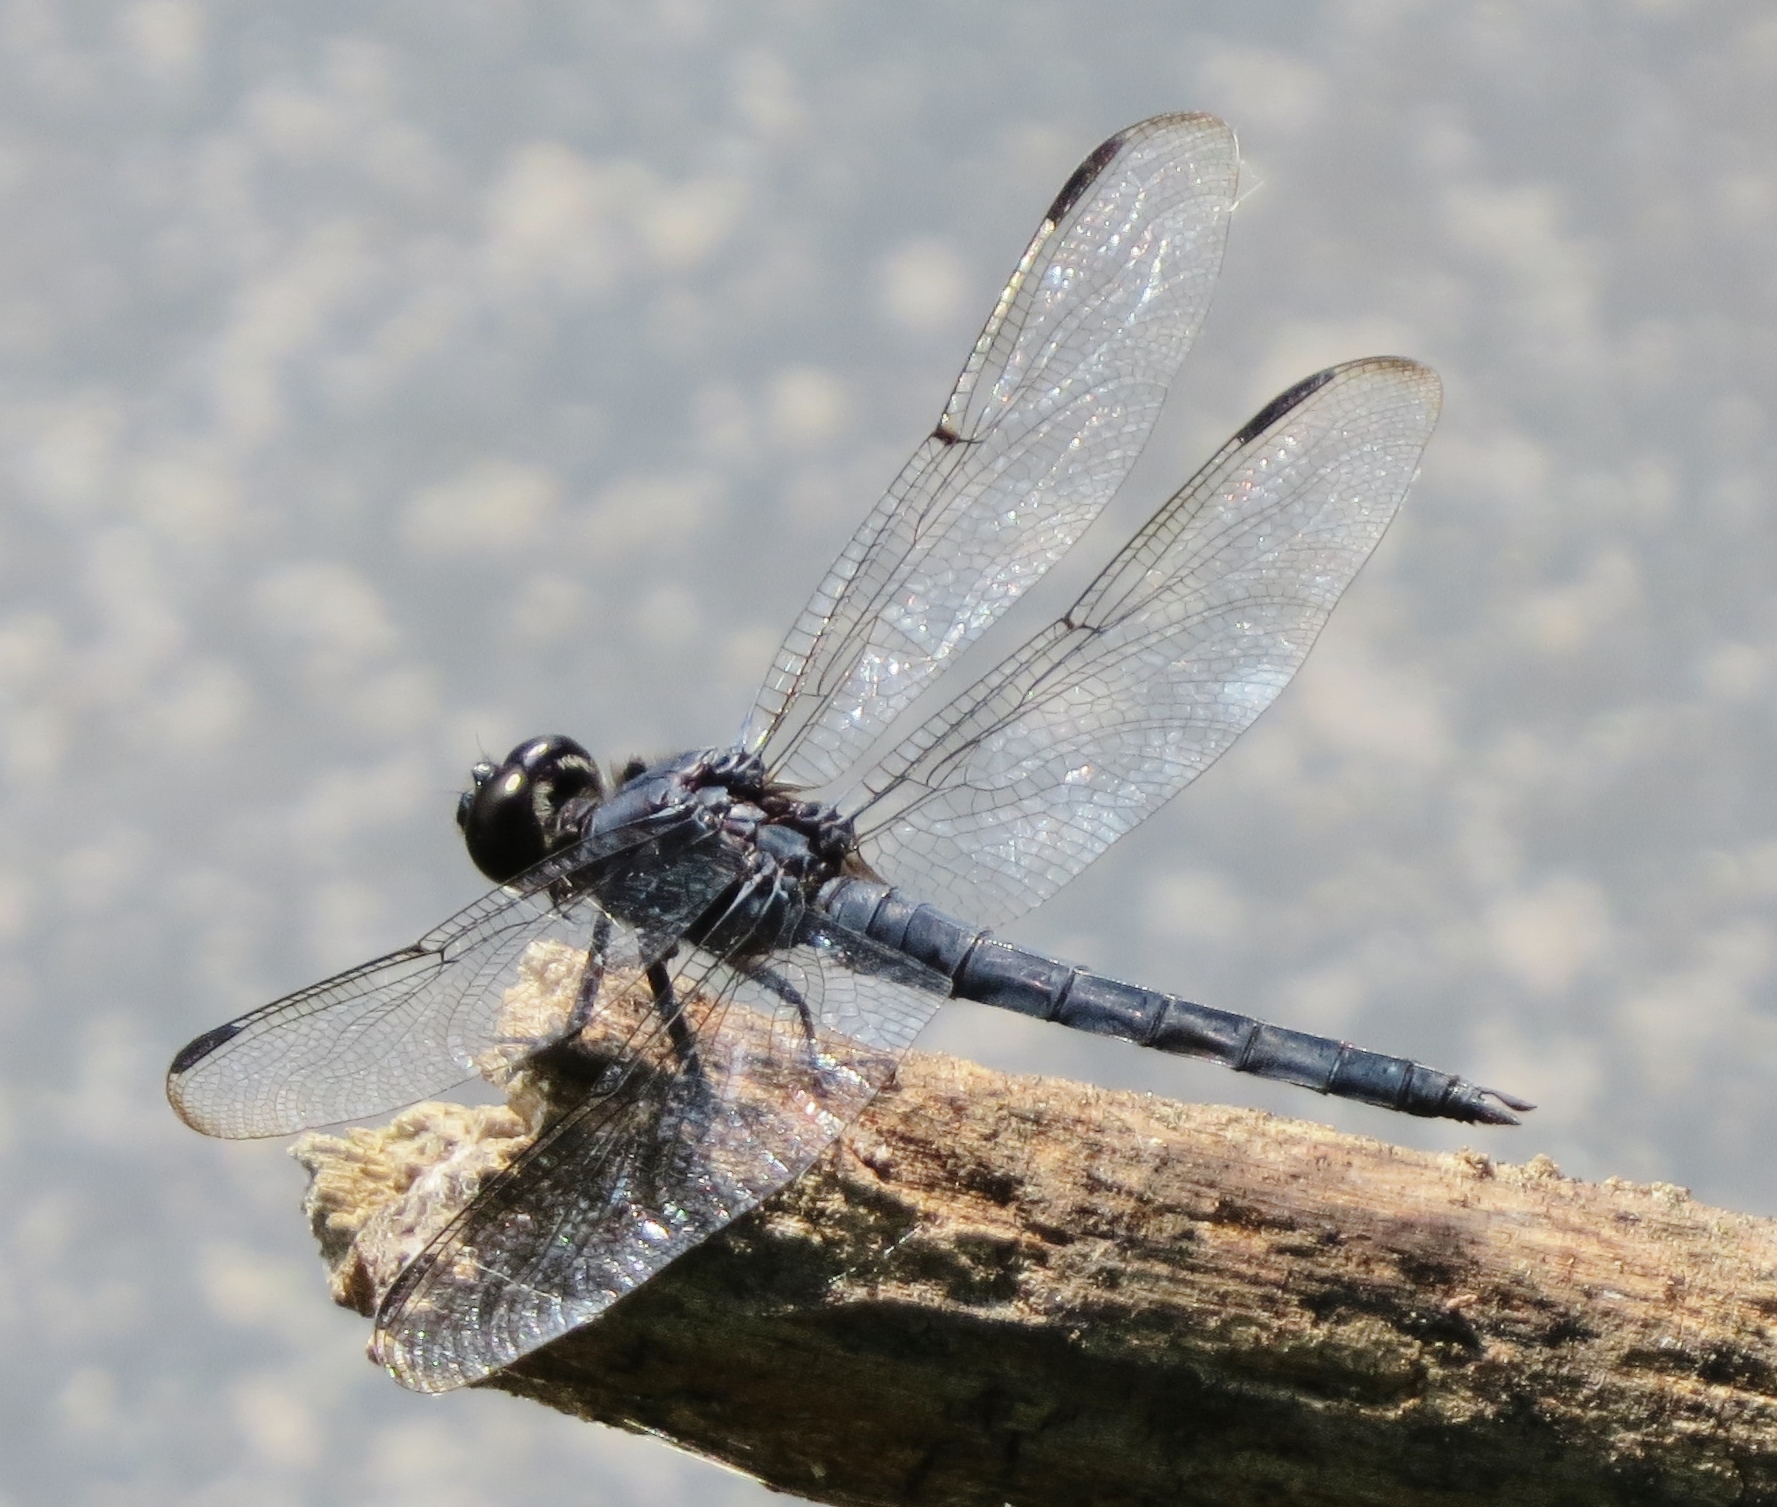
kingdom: Animalia
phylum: Arthropoda
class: Insecta
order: Odonata
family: Libellulidae
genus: Libellula
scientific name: Libellula incesta
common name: Slaty skimmer
